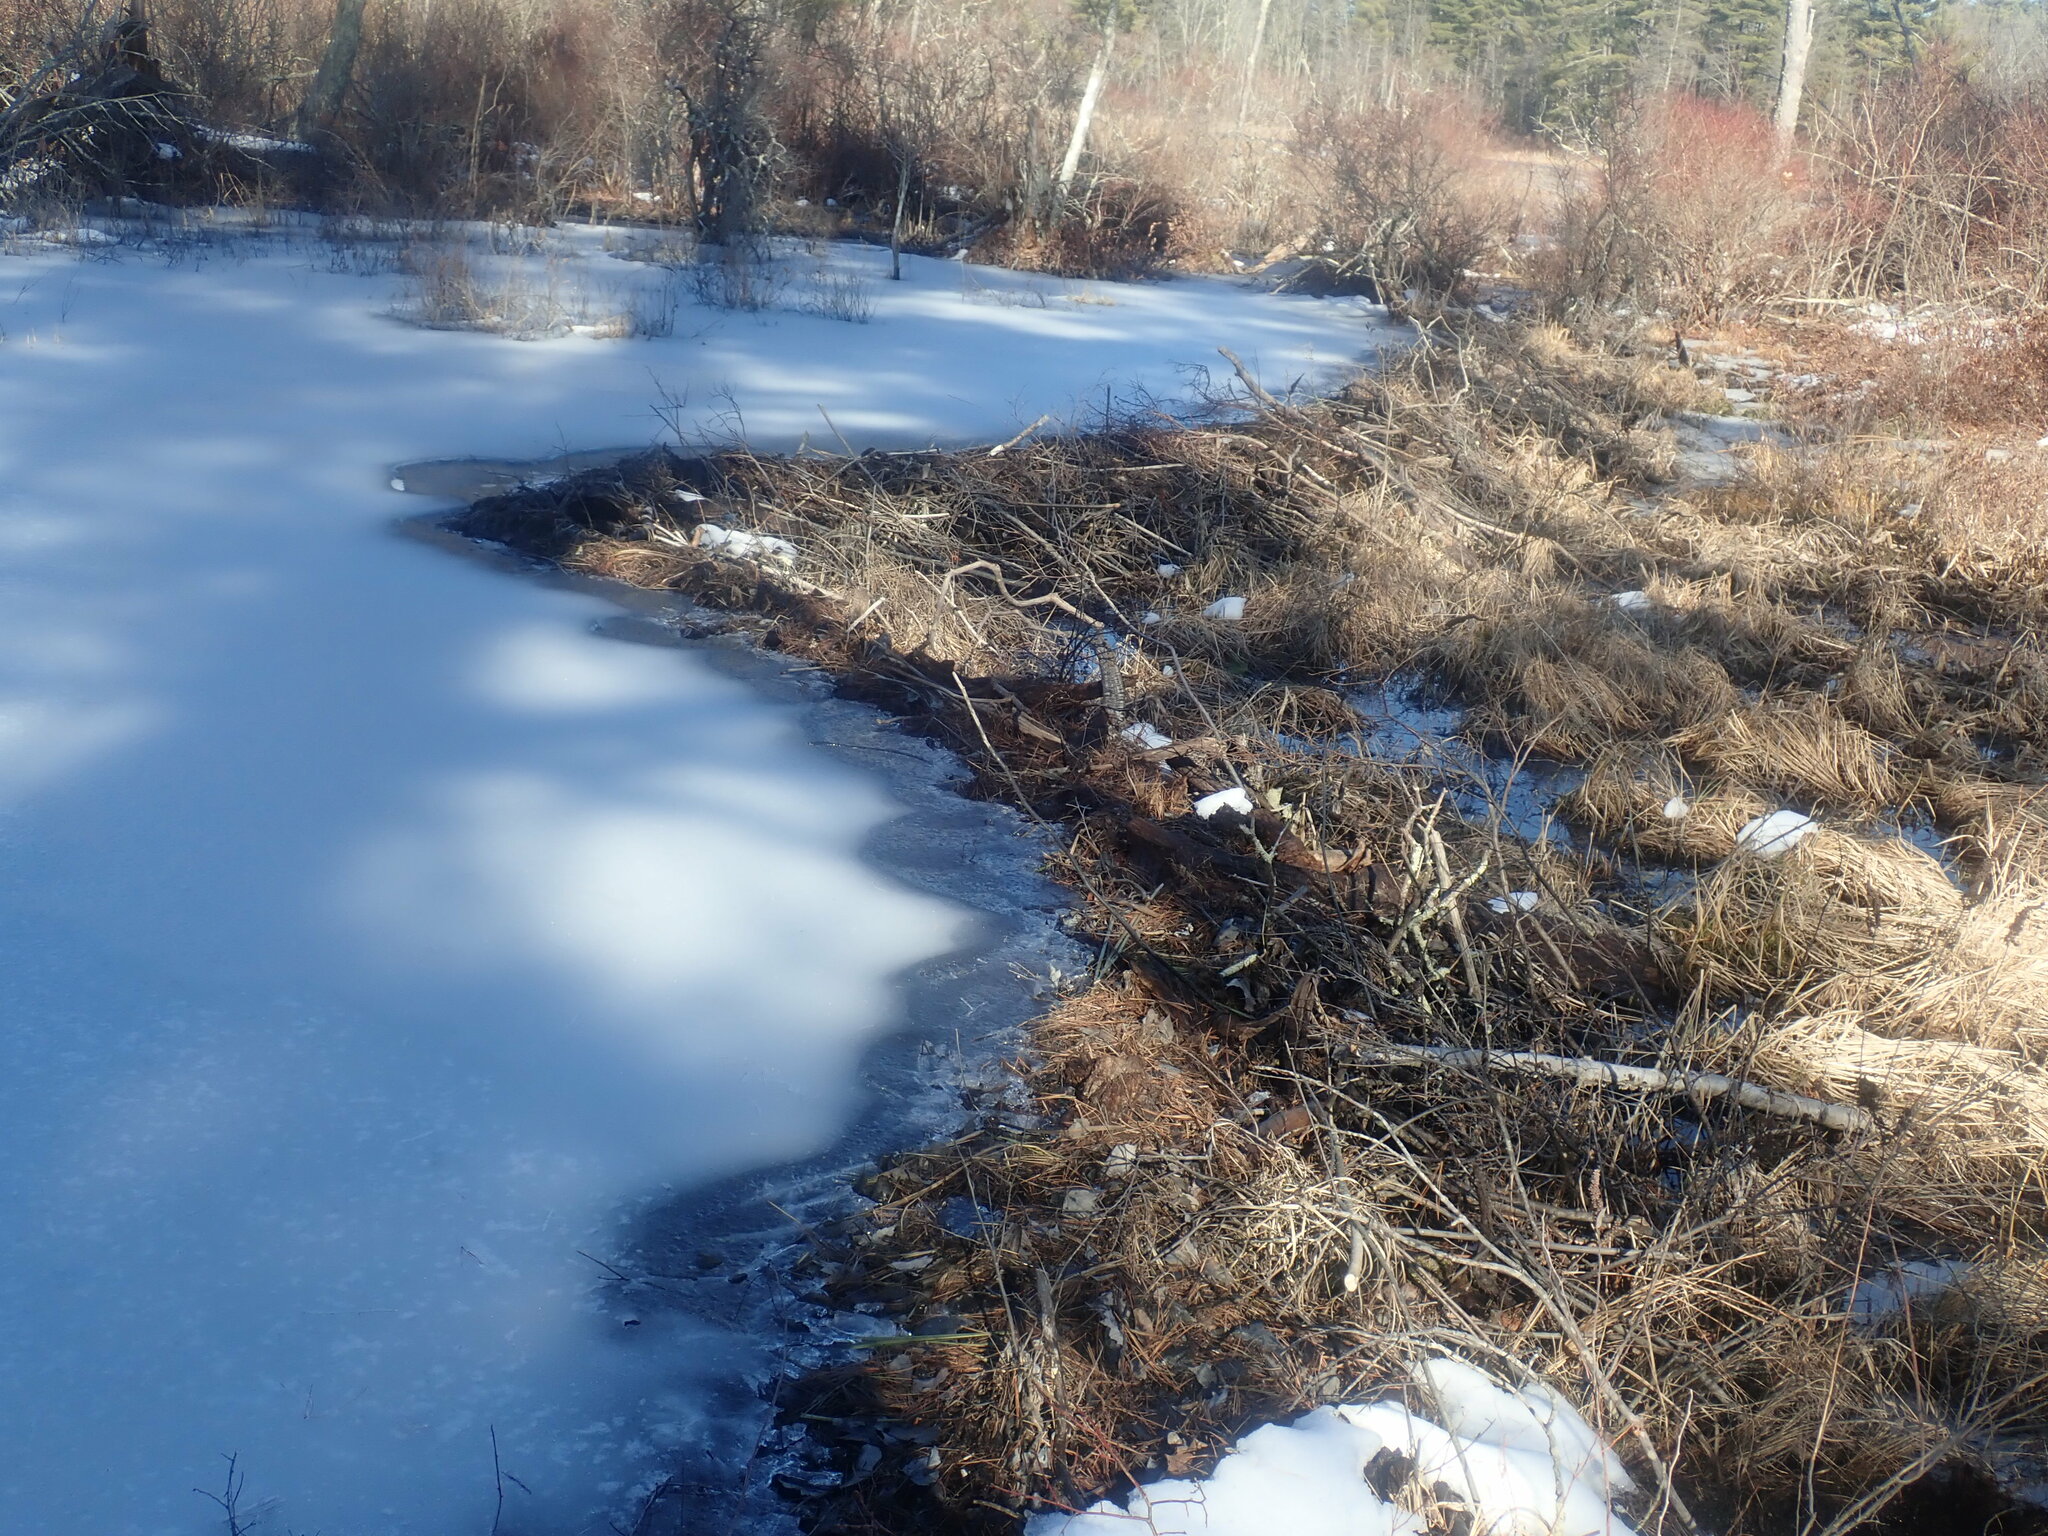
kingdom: Animalia
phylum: Chordata
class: Mammalia
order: Rodentia
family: Castoridae
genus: Castor
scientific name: Castor canadensis
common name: American beaver
